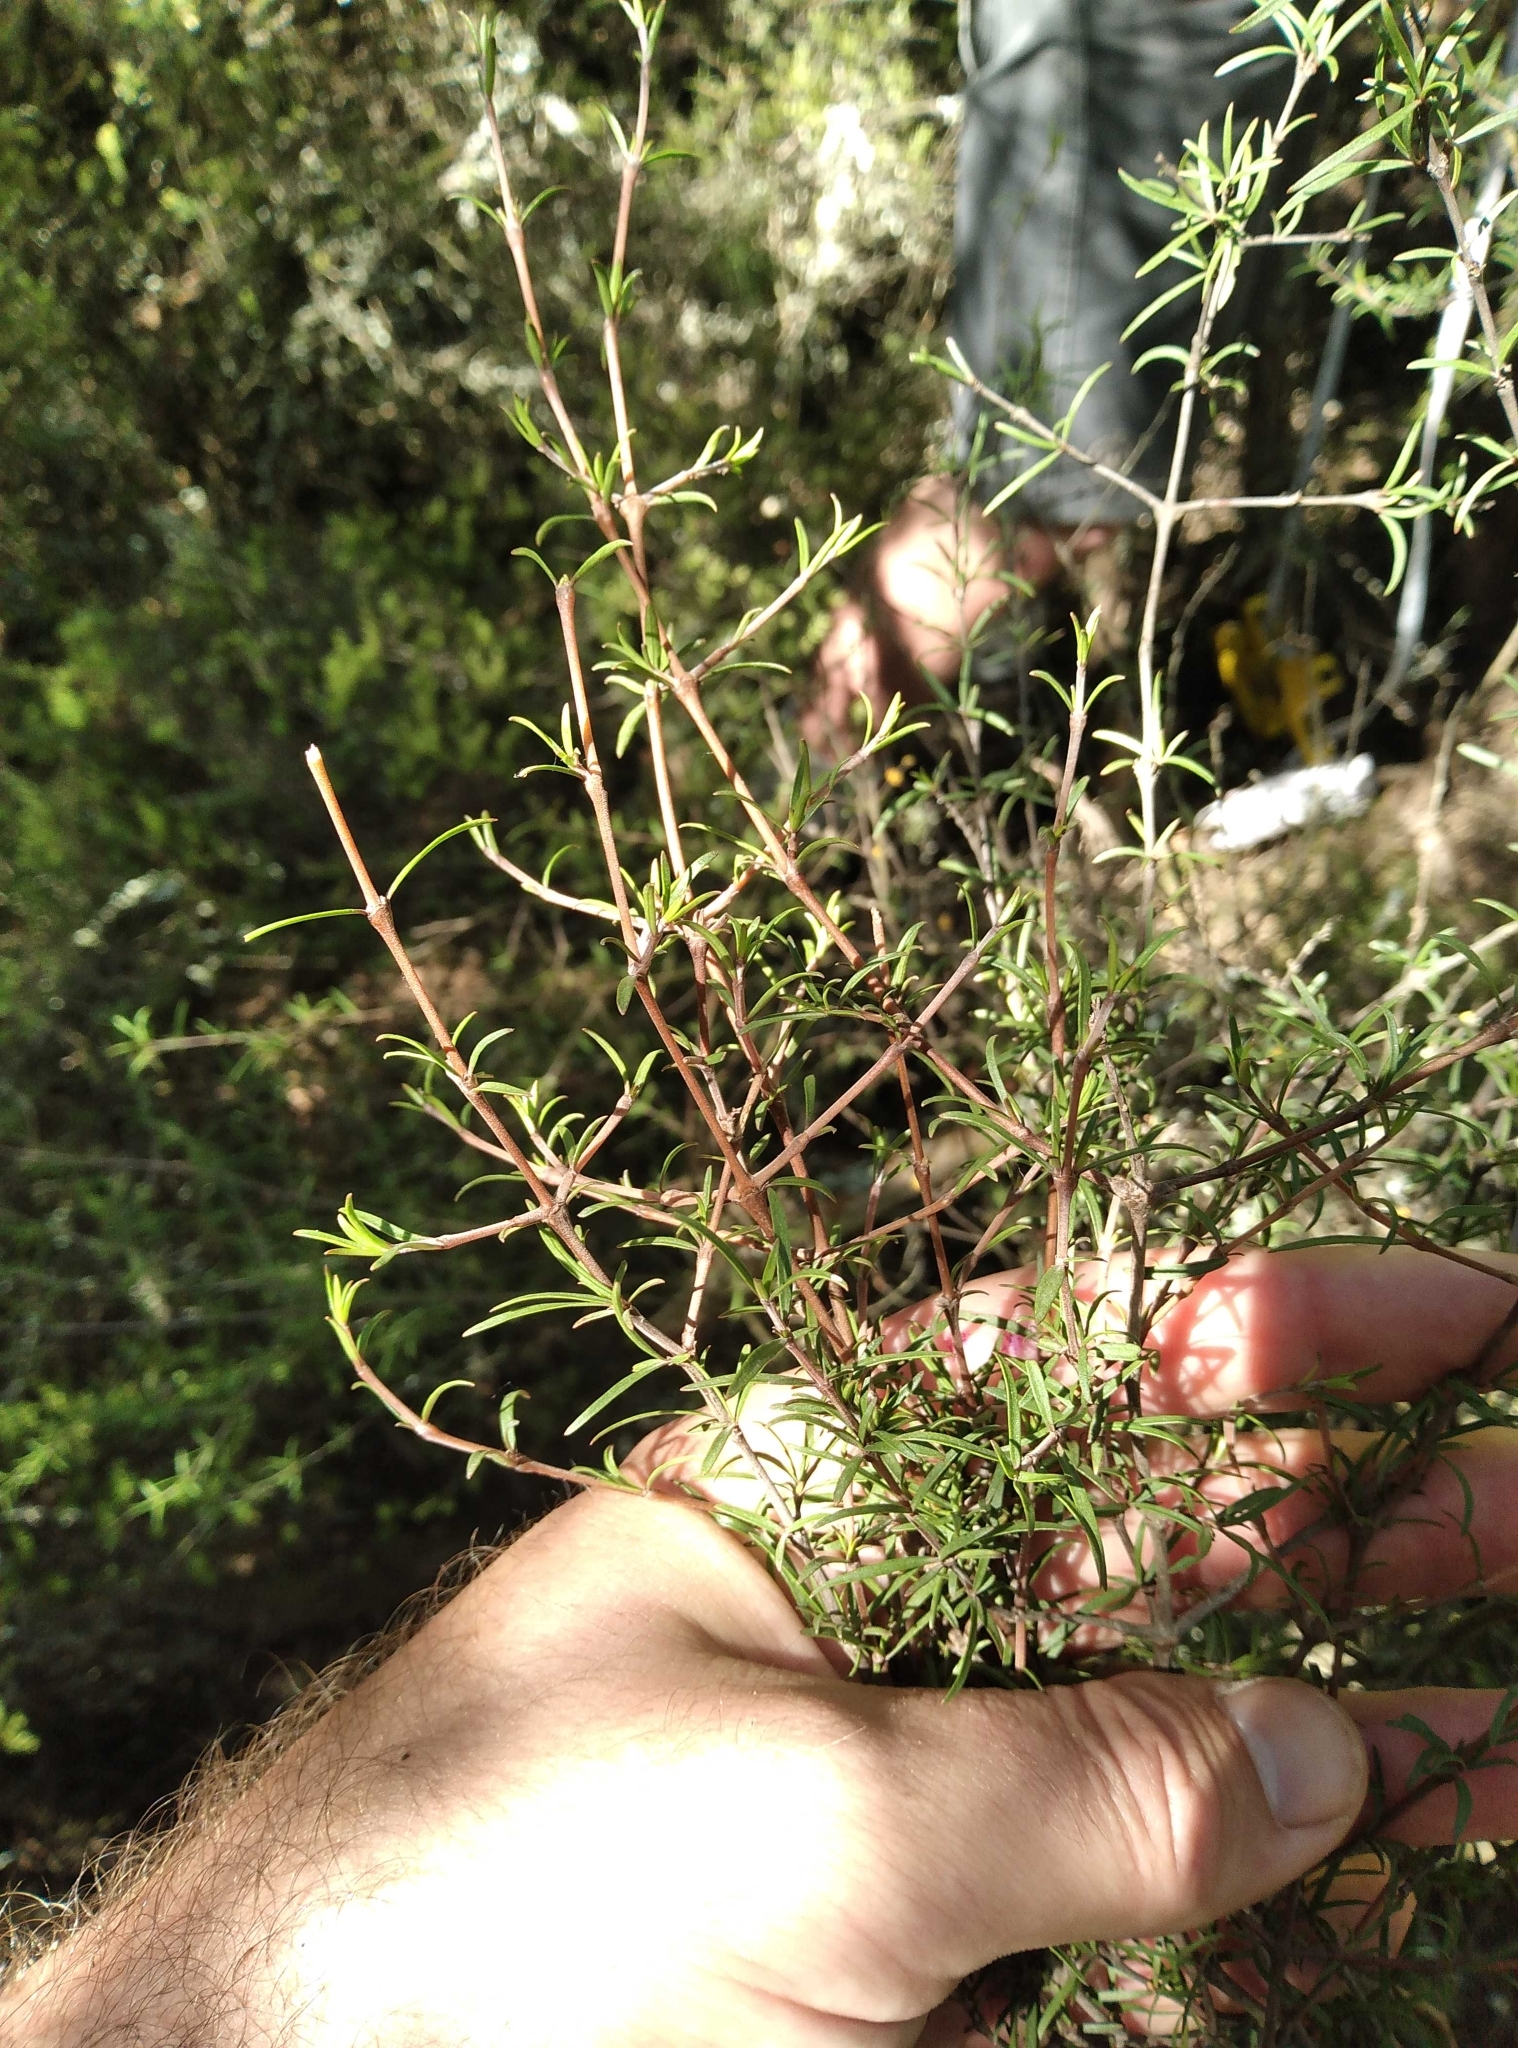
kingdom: Plantae
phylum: Tracheophyta
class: Magnoliopsida
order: Gentianales
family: Rubiaceae
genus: Coprosma
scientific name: Coprosma intertexta
